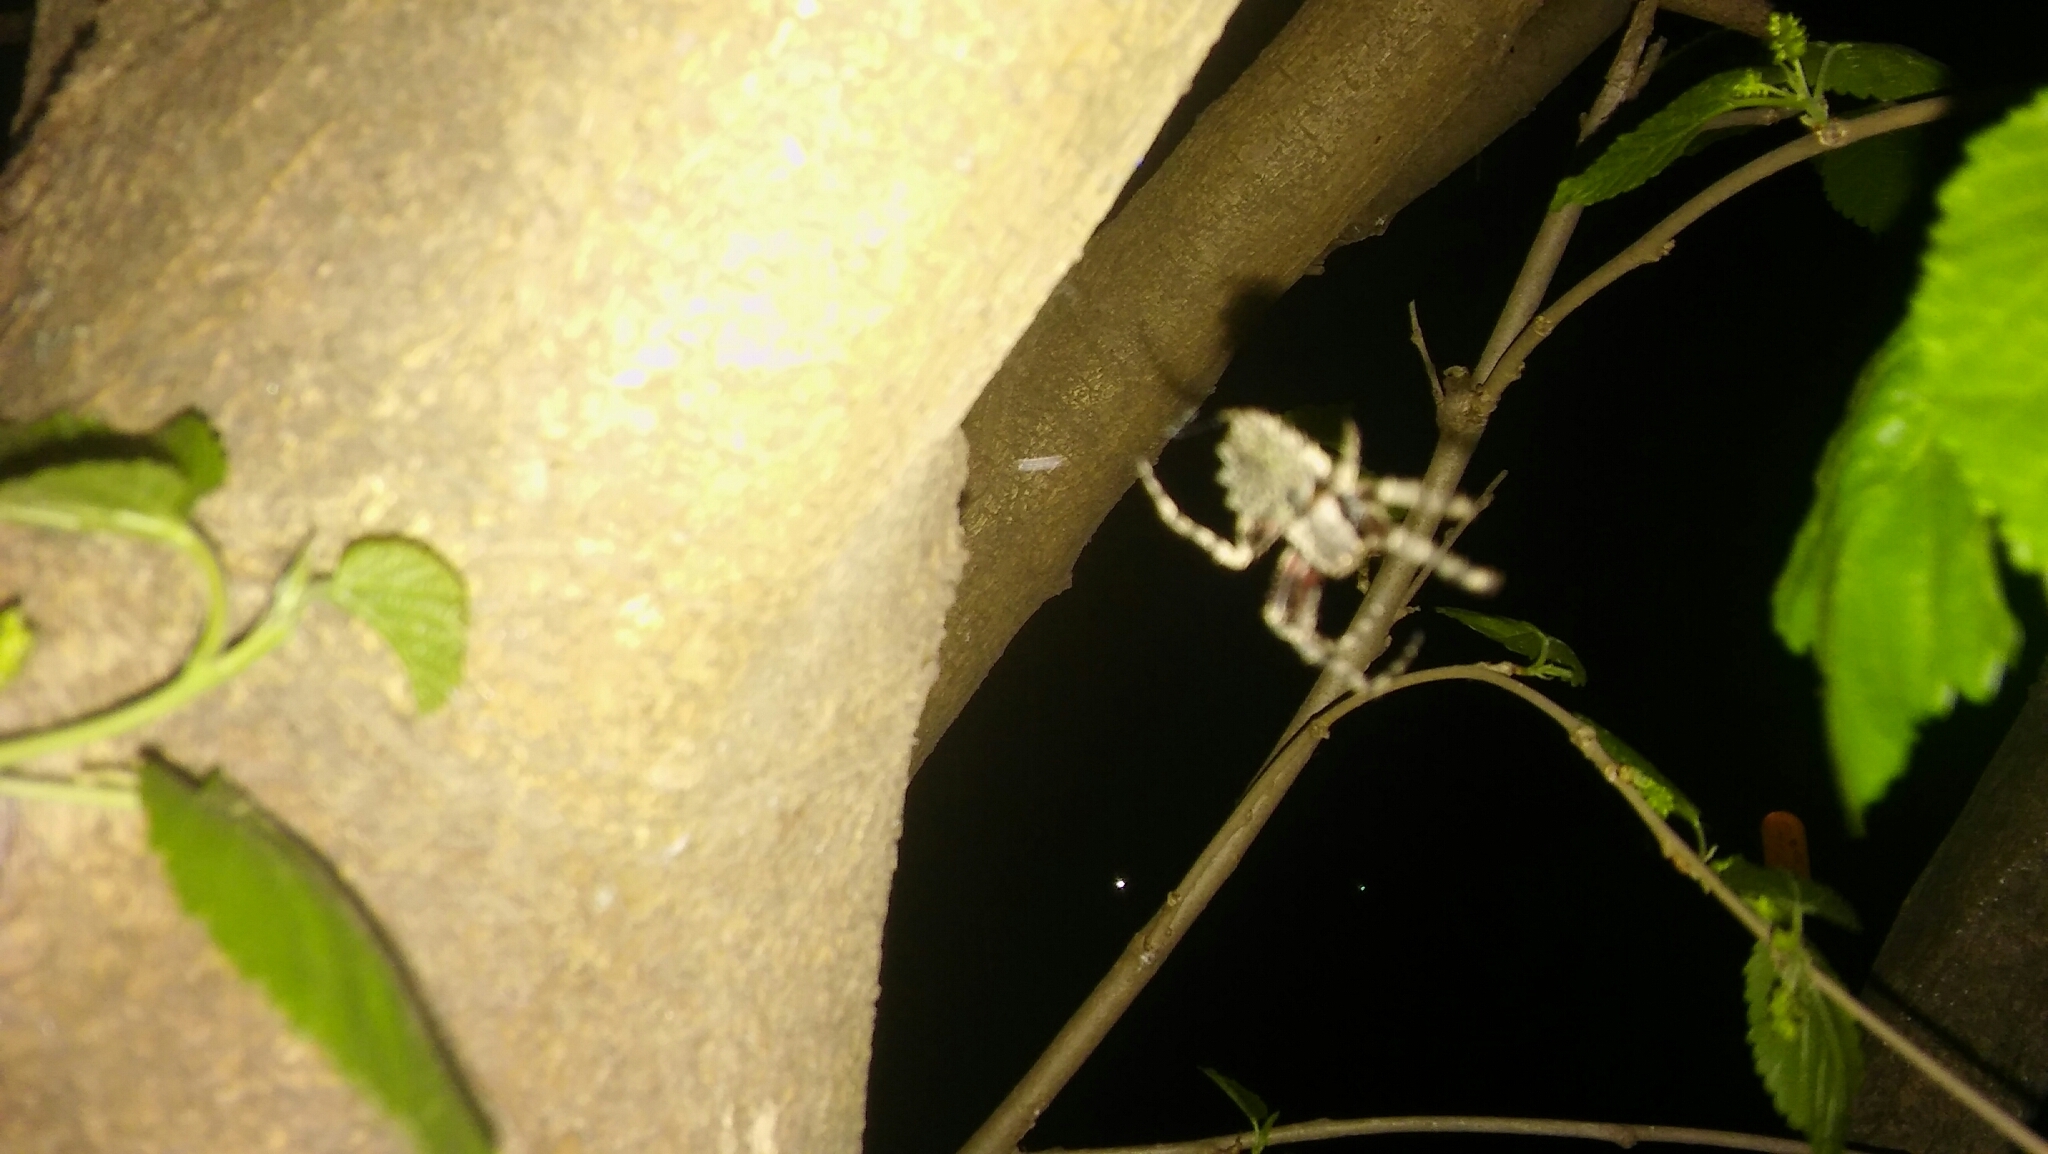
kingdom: Animalia
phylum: Arthropoda
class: Arachnida
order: Araneae
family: Araneidae
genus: Parawixia
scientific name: Parawixia audax
